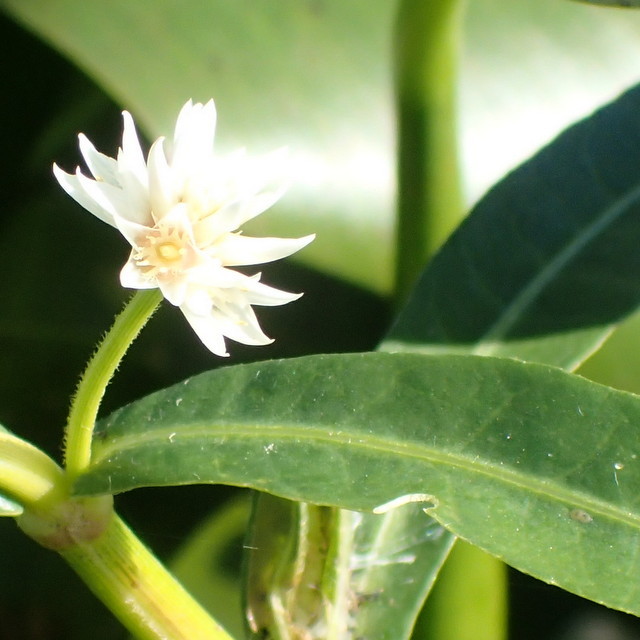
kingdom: Plantae
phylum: Tracheophyta
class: Magnoliopsida
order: Caryophyllales
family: Amaranthaceae
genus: Alternanthera
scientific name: Alternanthera philoxeroides
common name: Alligatorweed
